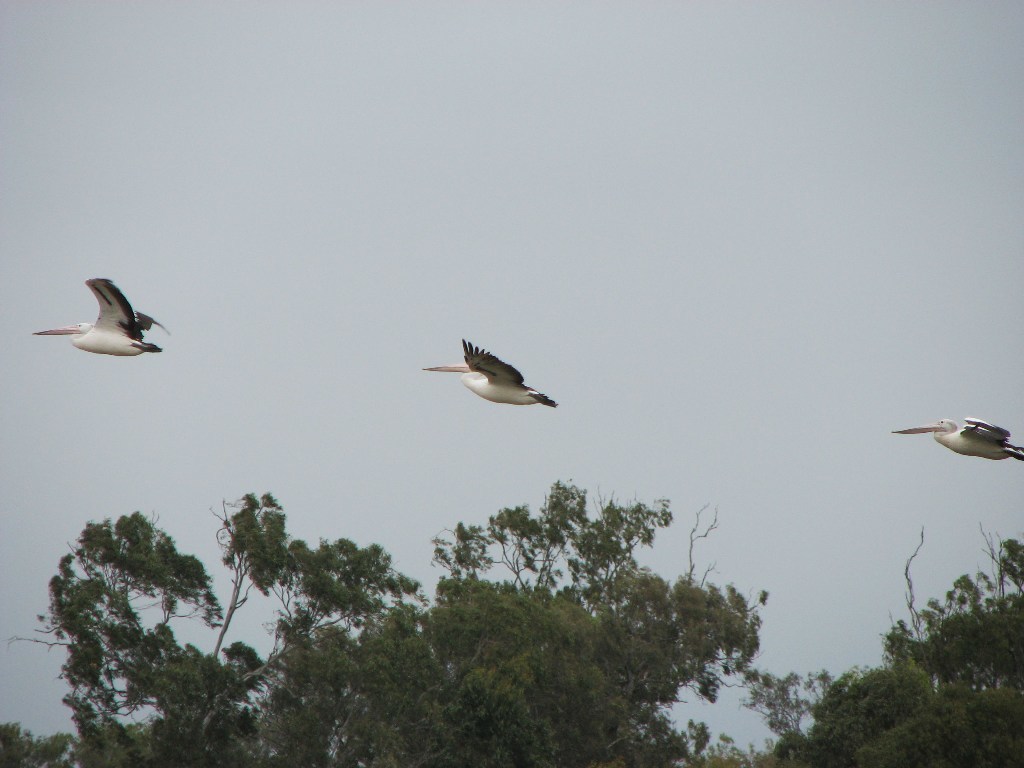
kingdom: Animalia
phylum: Chordata
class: Aves
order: Pelecaniformes
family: Pelecanidae
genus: Pelecanus
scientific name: Pelecanus conspicillatus
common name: Australian pelican
